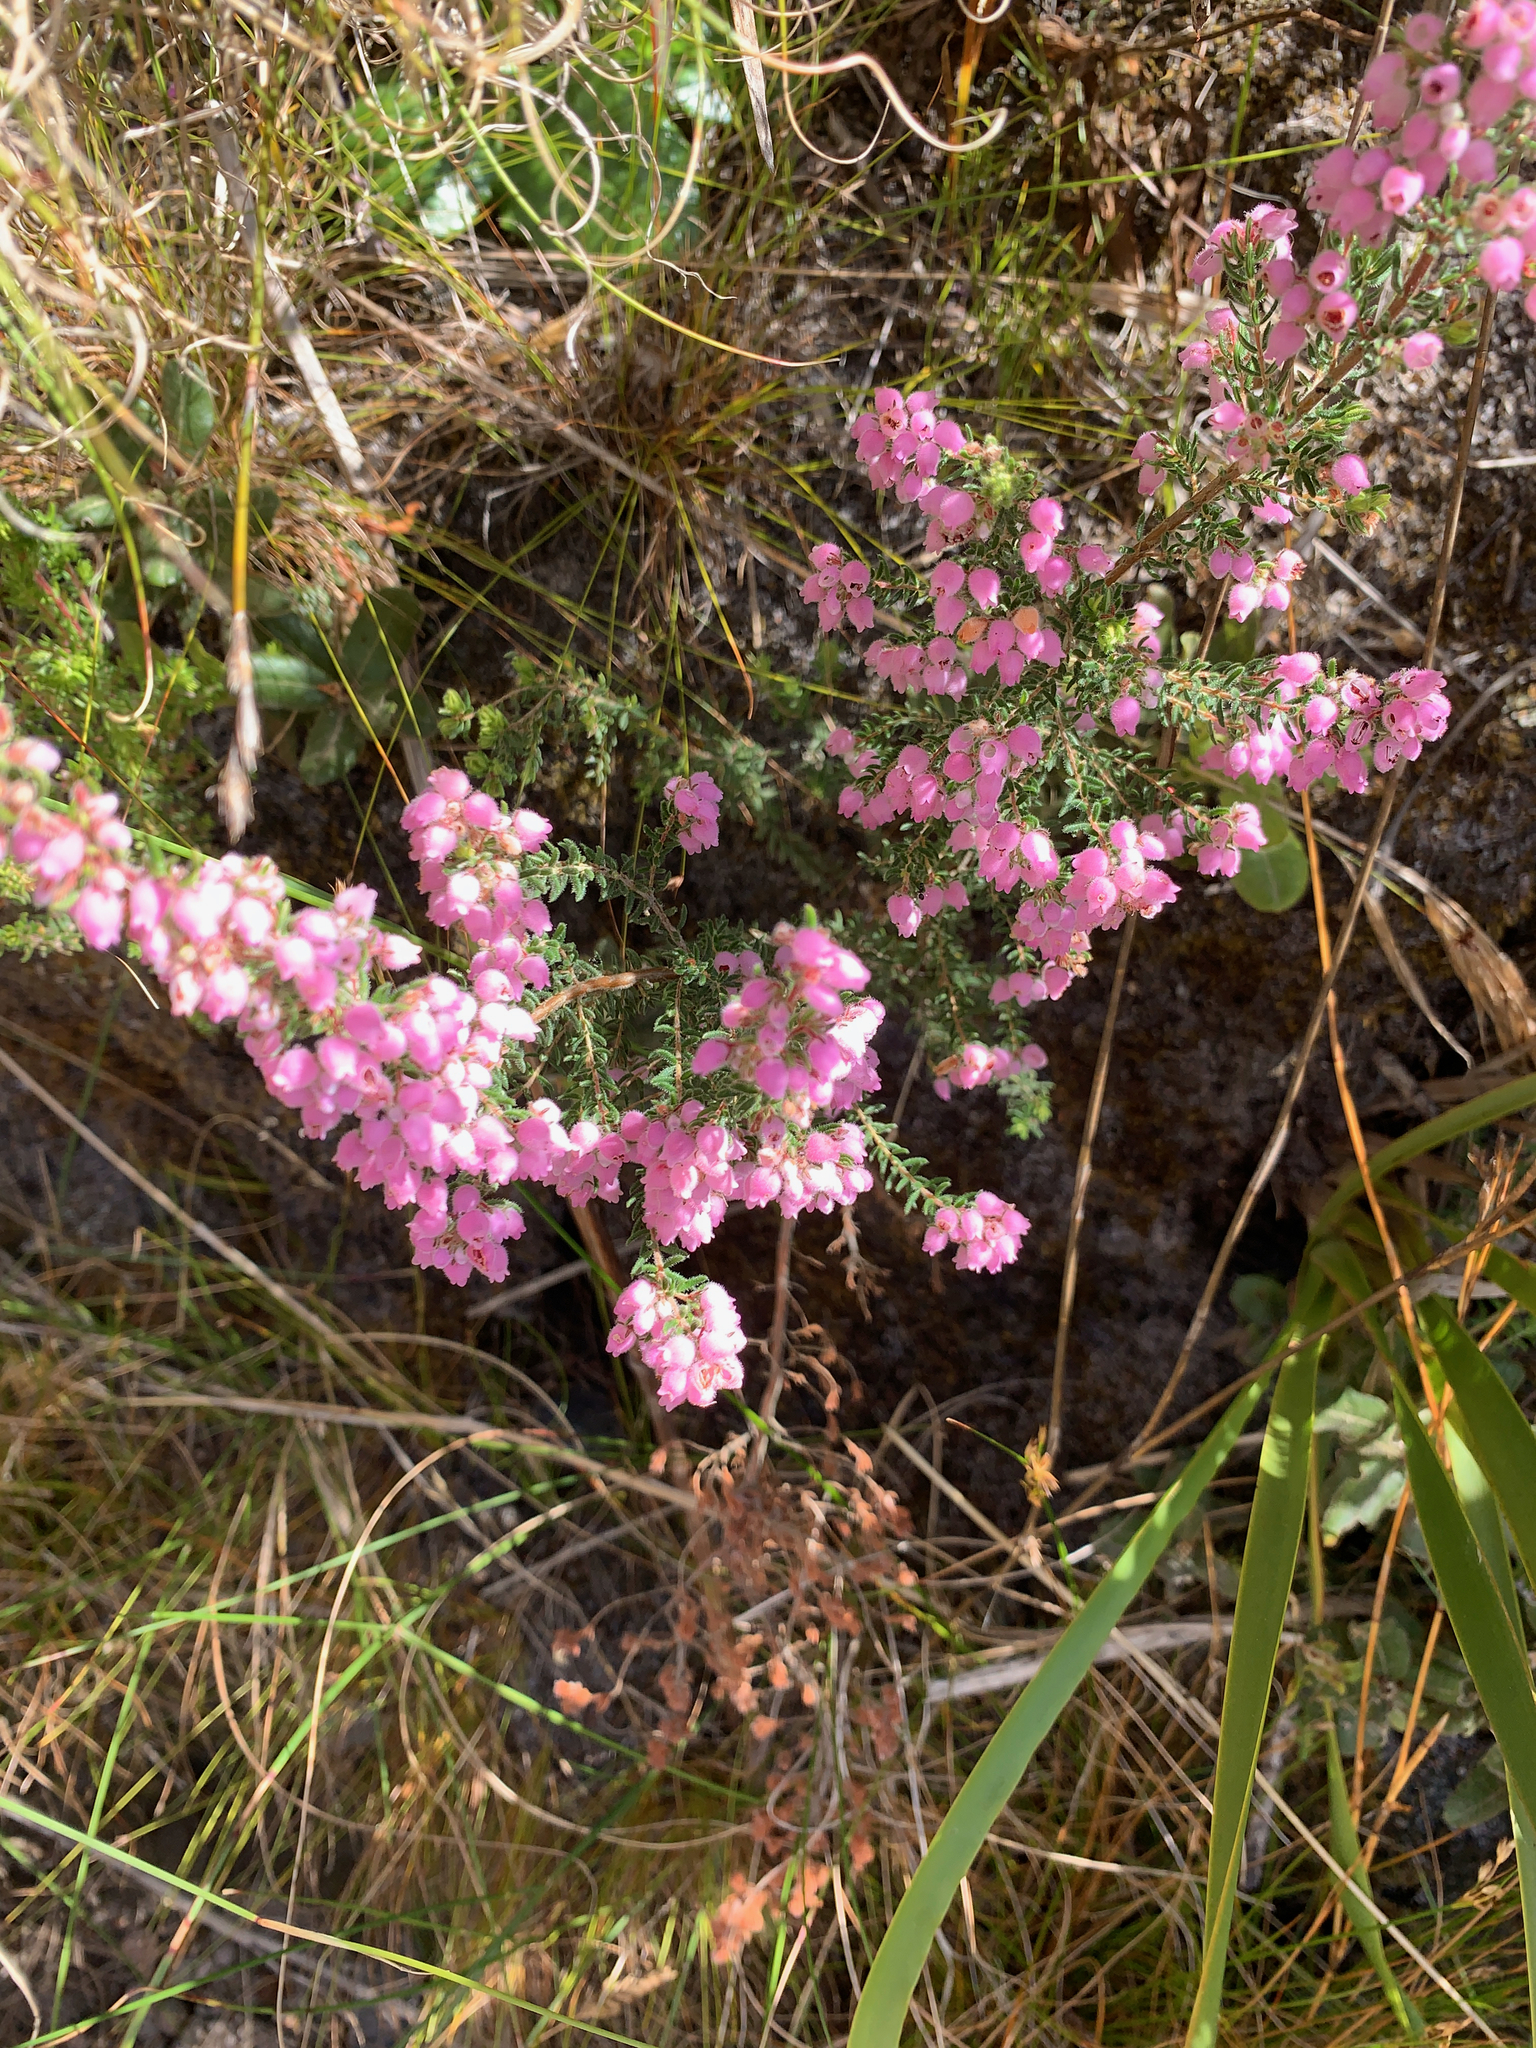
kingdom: Plantae
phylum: Tracheophyta
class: Magnoliopsida
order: Ericales
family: Ericaceae
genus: Erica
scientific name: Erica hirtiflora
